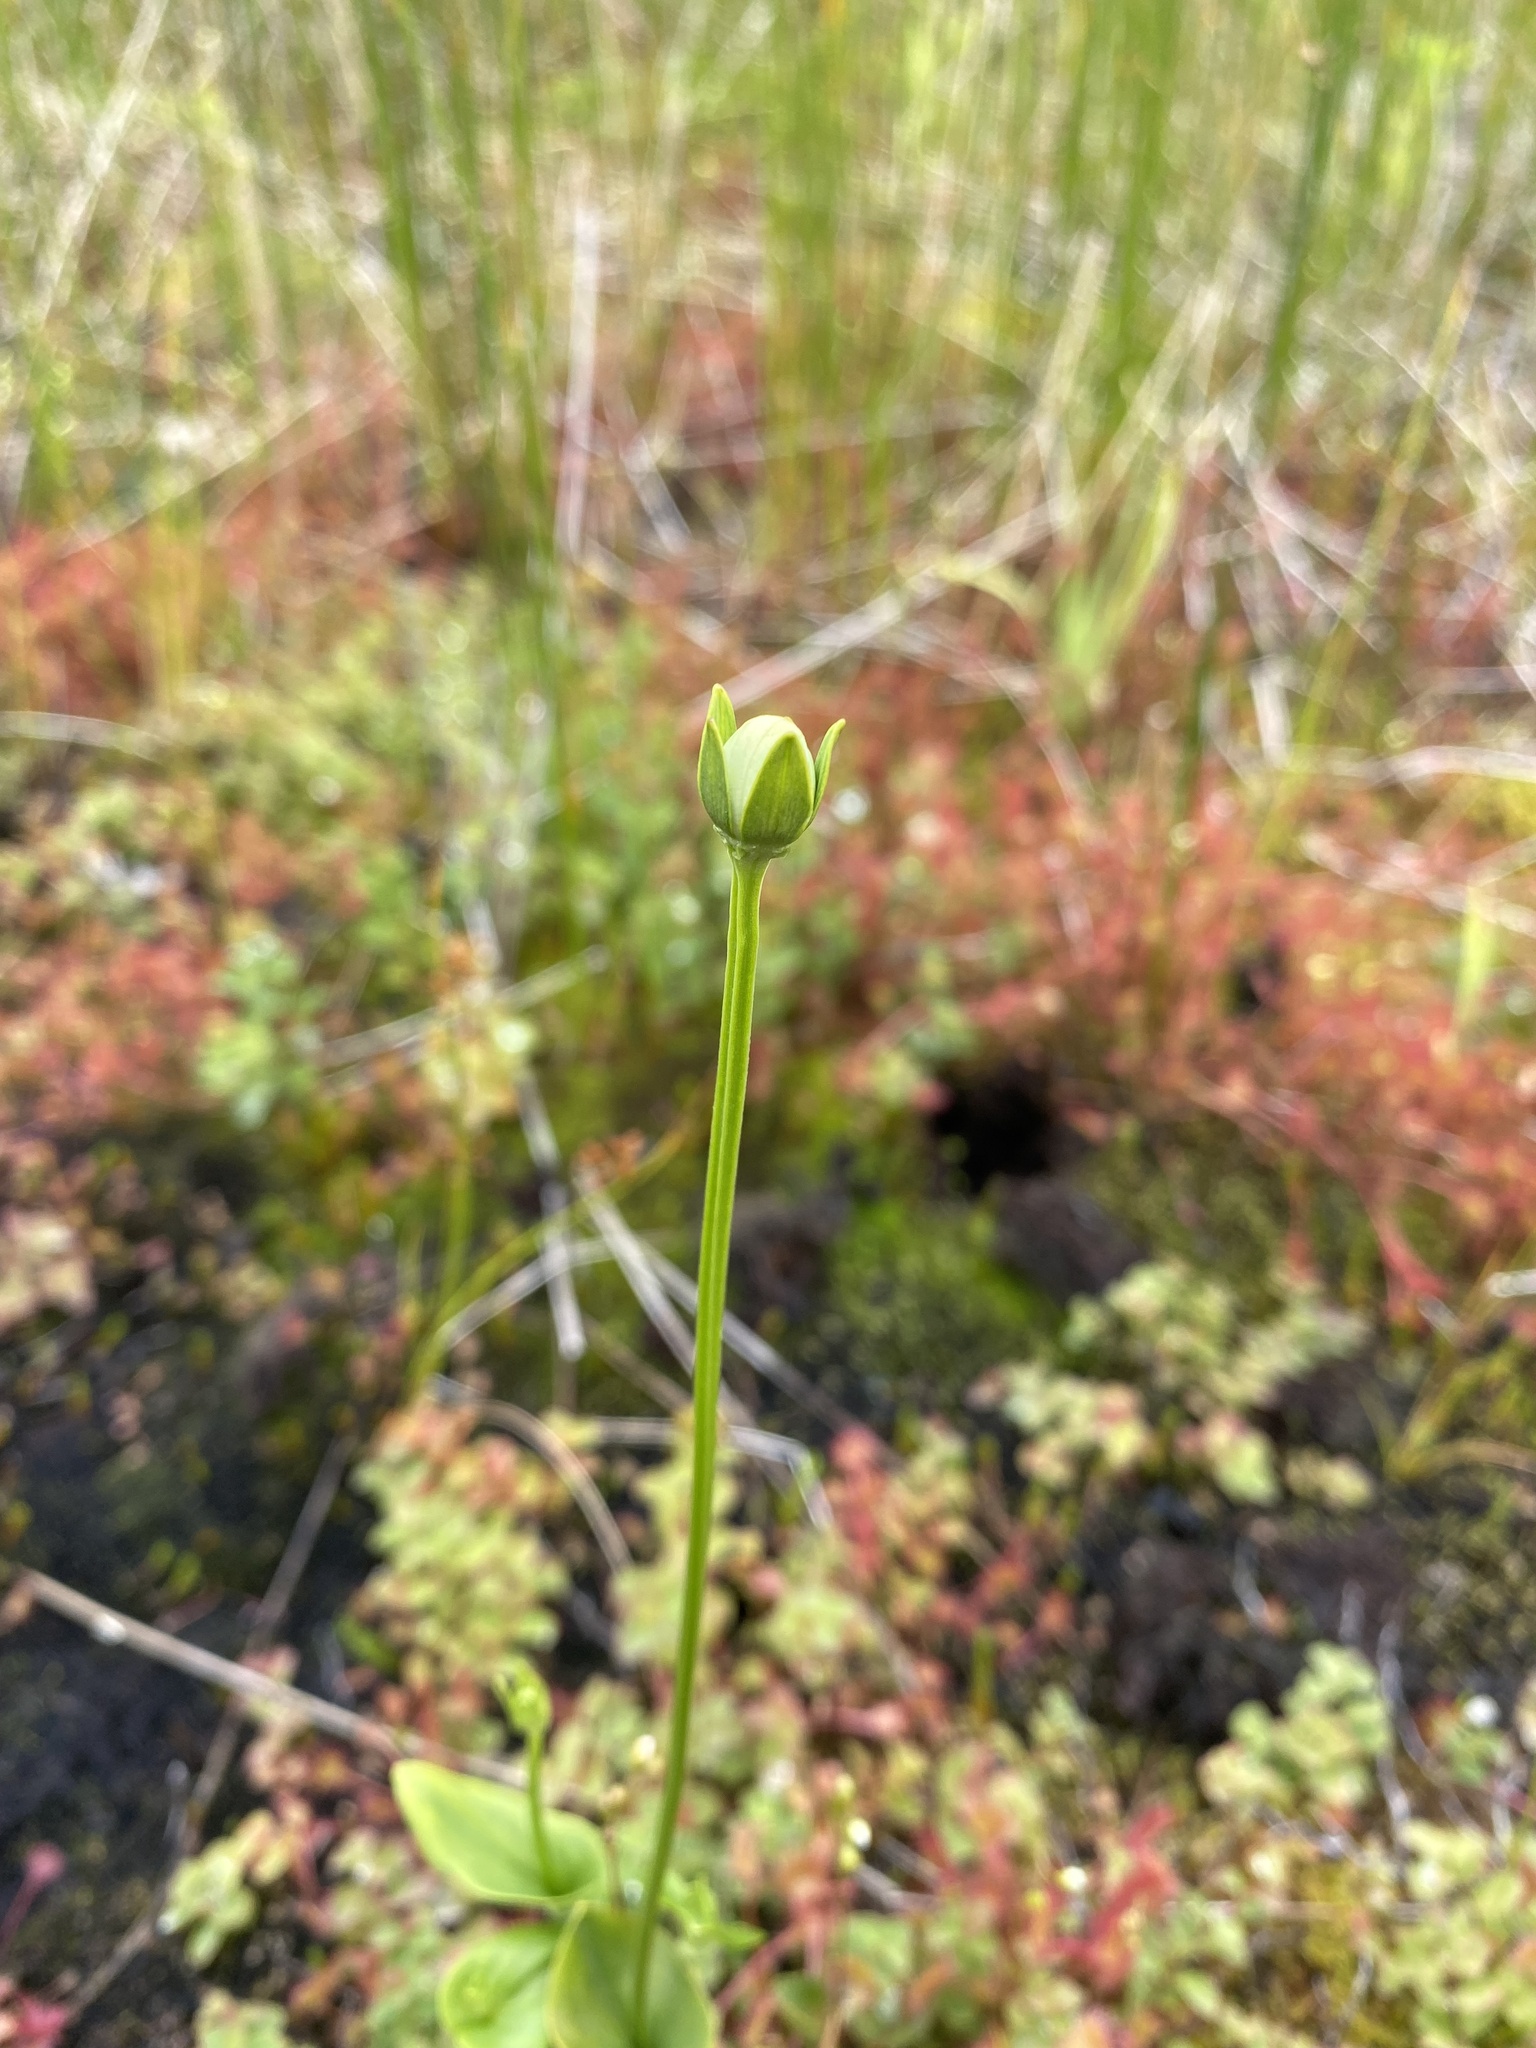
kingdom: Plantae
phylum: Tracheophyta
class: Magnoliopsida
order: Celastrales
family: Parnassiaceae
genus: Parnassia
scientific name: Parnassia palustris
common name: Grass-of-parnassus
